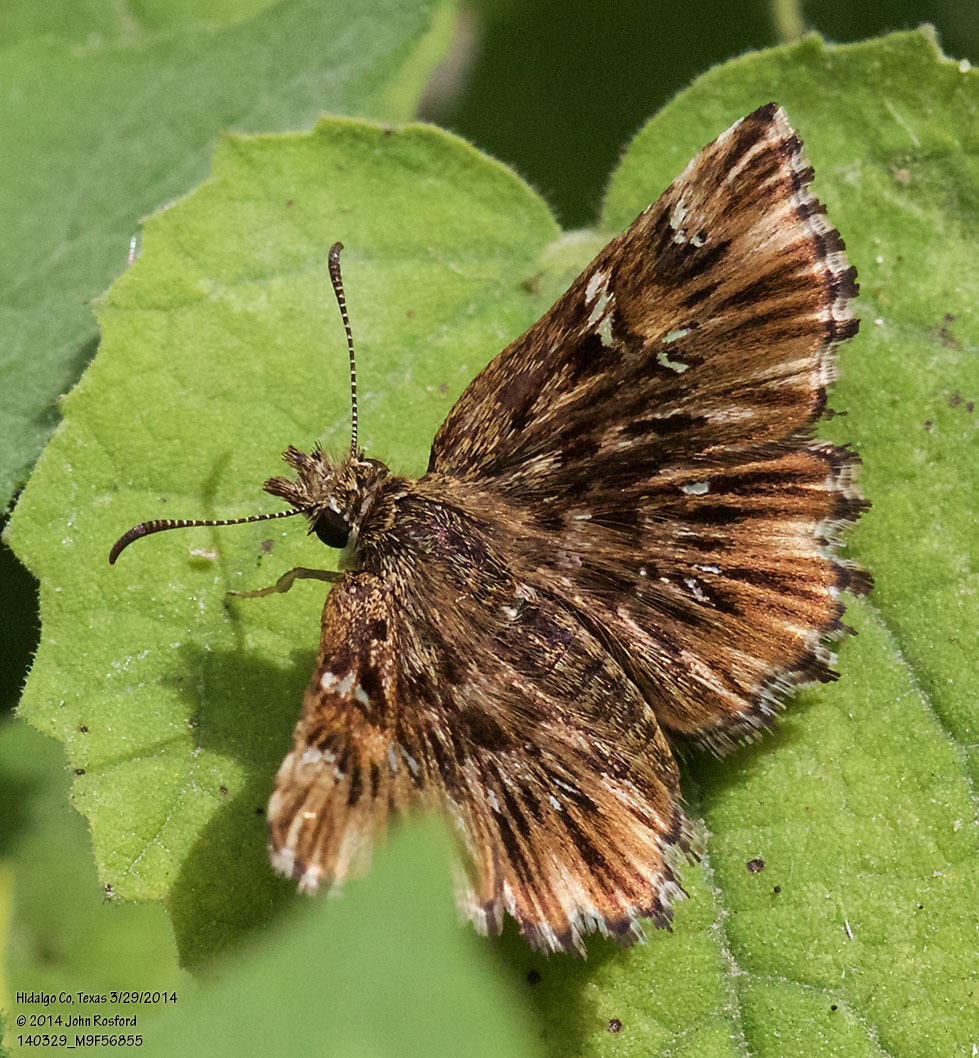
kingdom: Animalia
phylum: Arthropoda
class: Insecta
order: Lepidoptera
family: Hesperiidae
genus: Celotes
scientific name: Celotes nessus
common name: Common streaky-skipper
